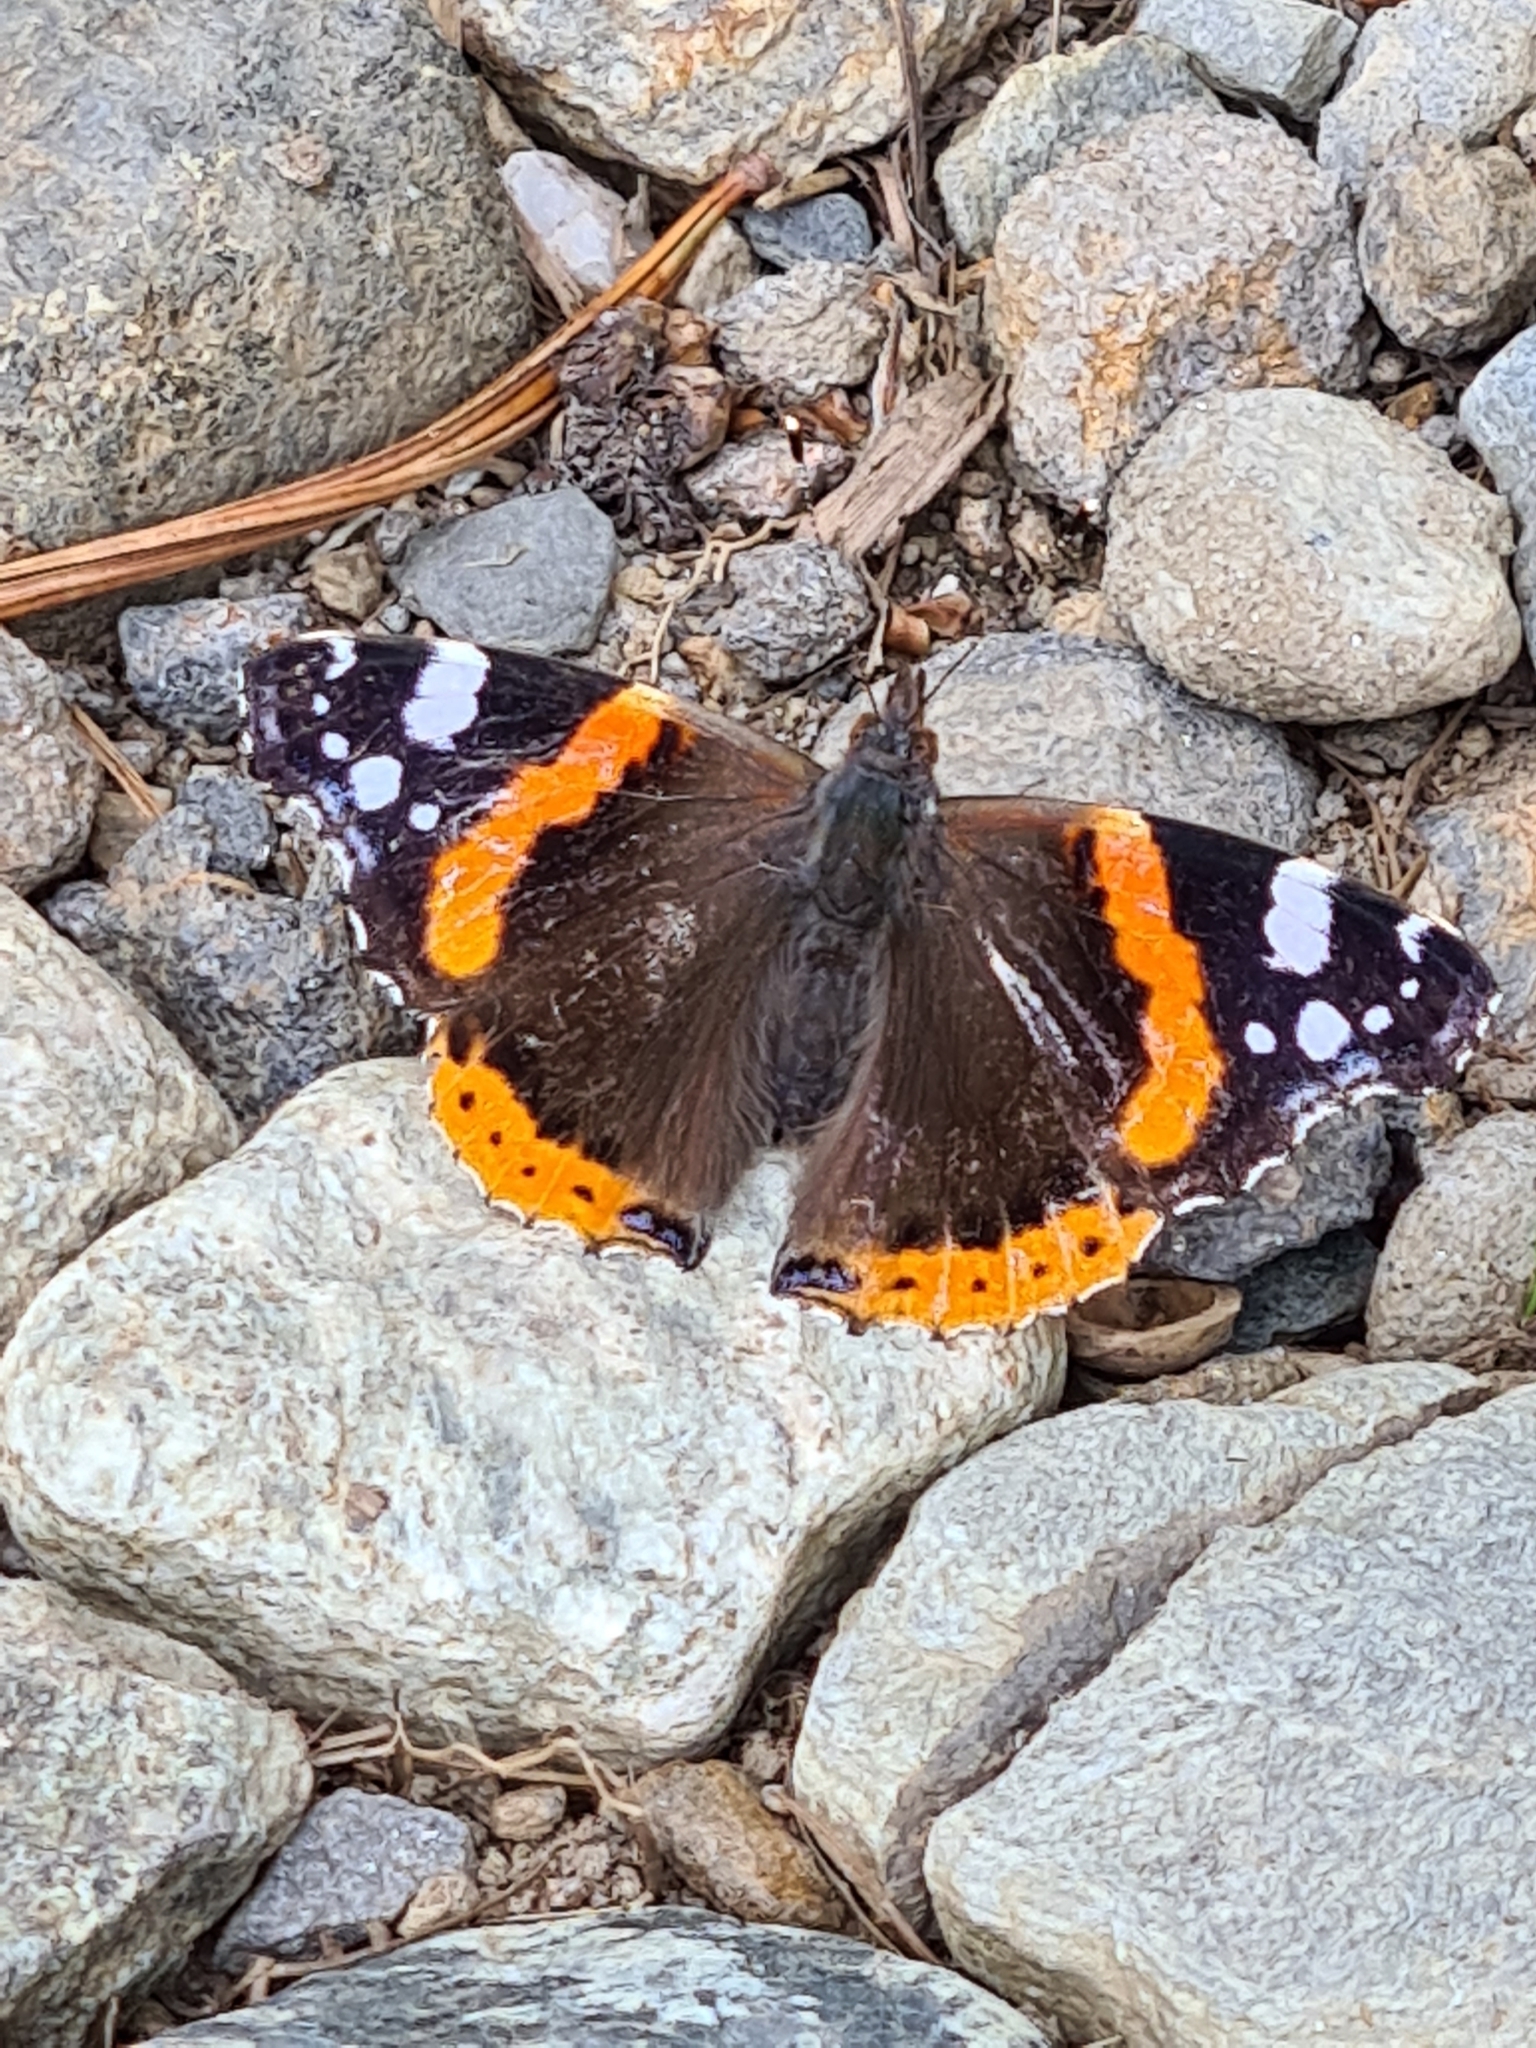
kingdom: Animalia
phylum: Arthropoda
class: Insecta
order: Lepidoptera
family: Nymphalidae
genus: Vanessa
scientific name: Vanessa atalanta
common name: Red admiral
